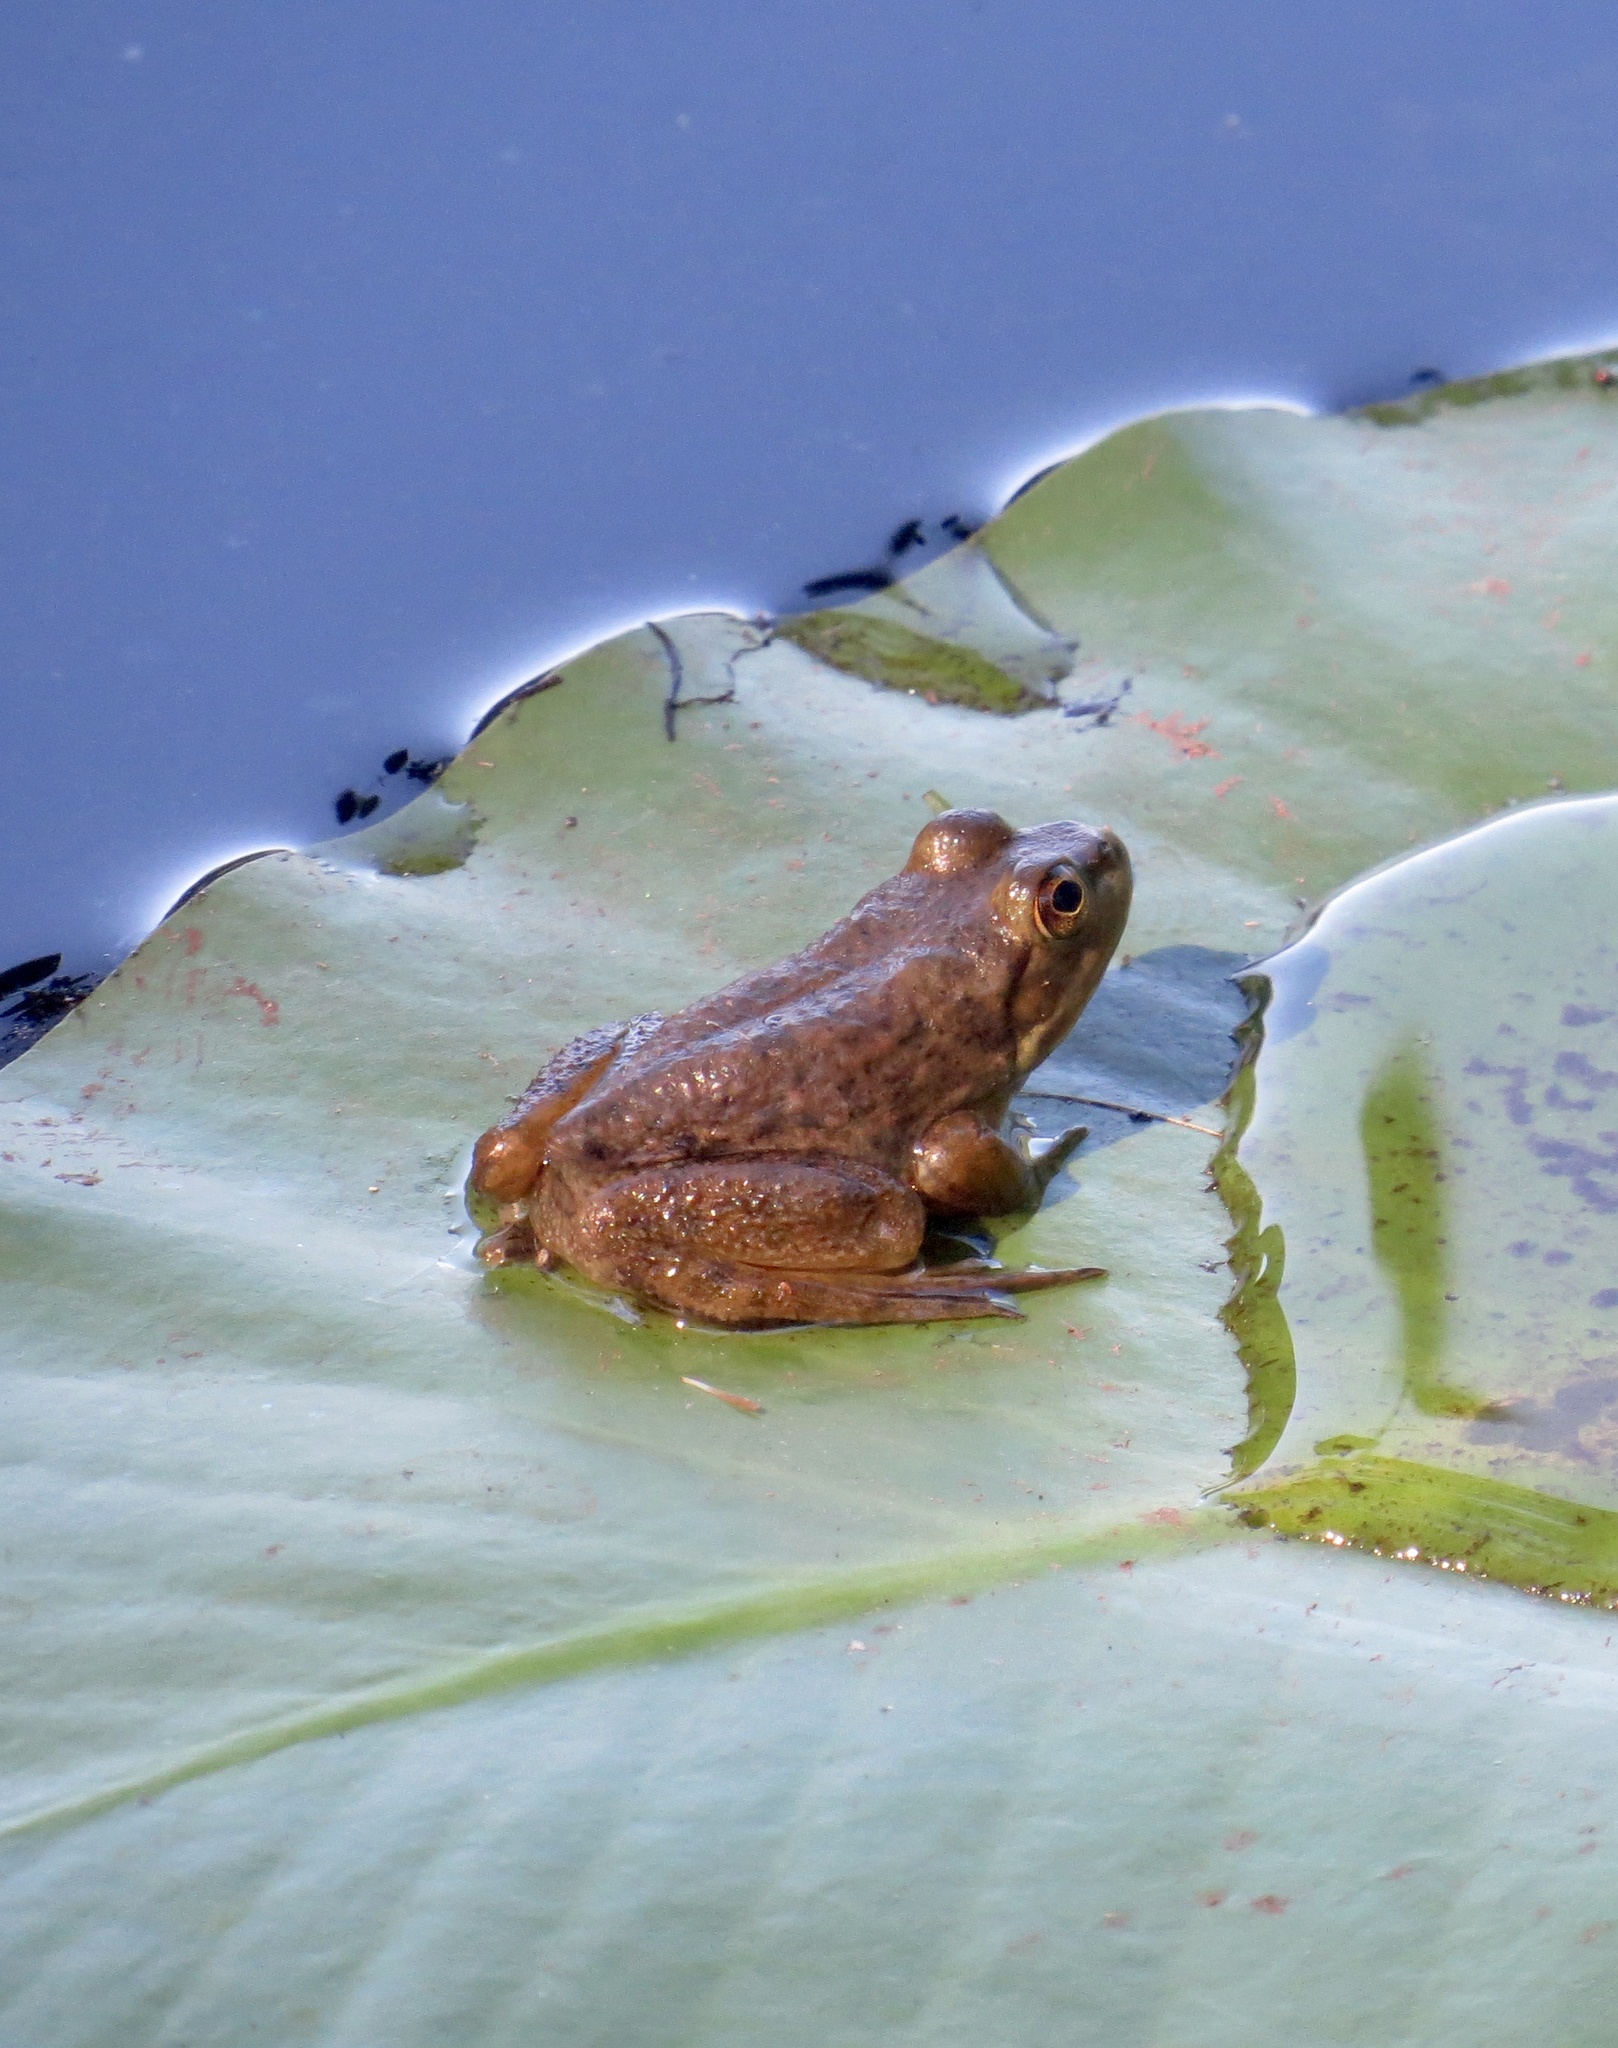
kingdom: Animalia
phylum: Chordata
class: Amphibia
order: Anura
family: Ranidae
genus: Lithobates
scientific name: Lithobates catesbeianus
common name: American bullfrog
